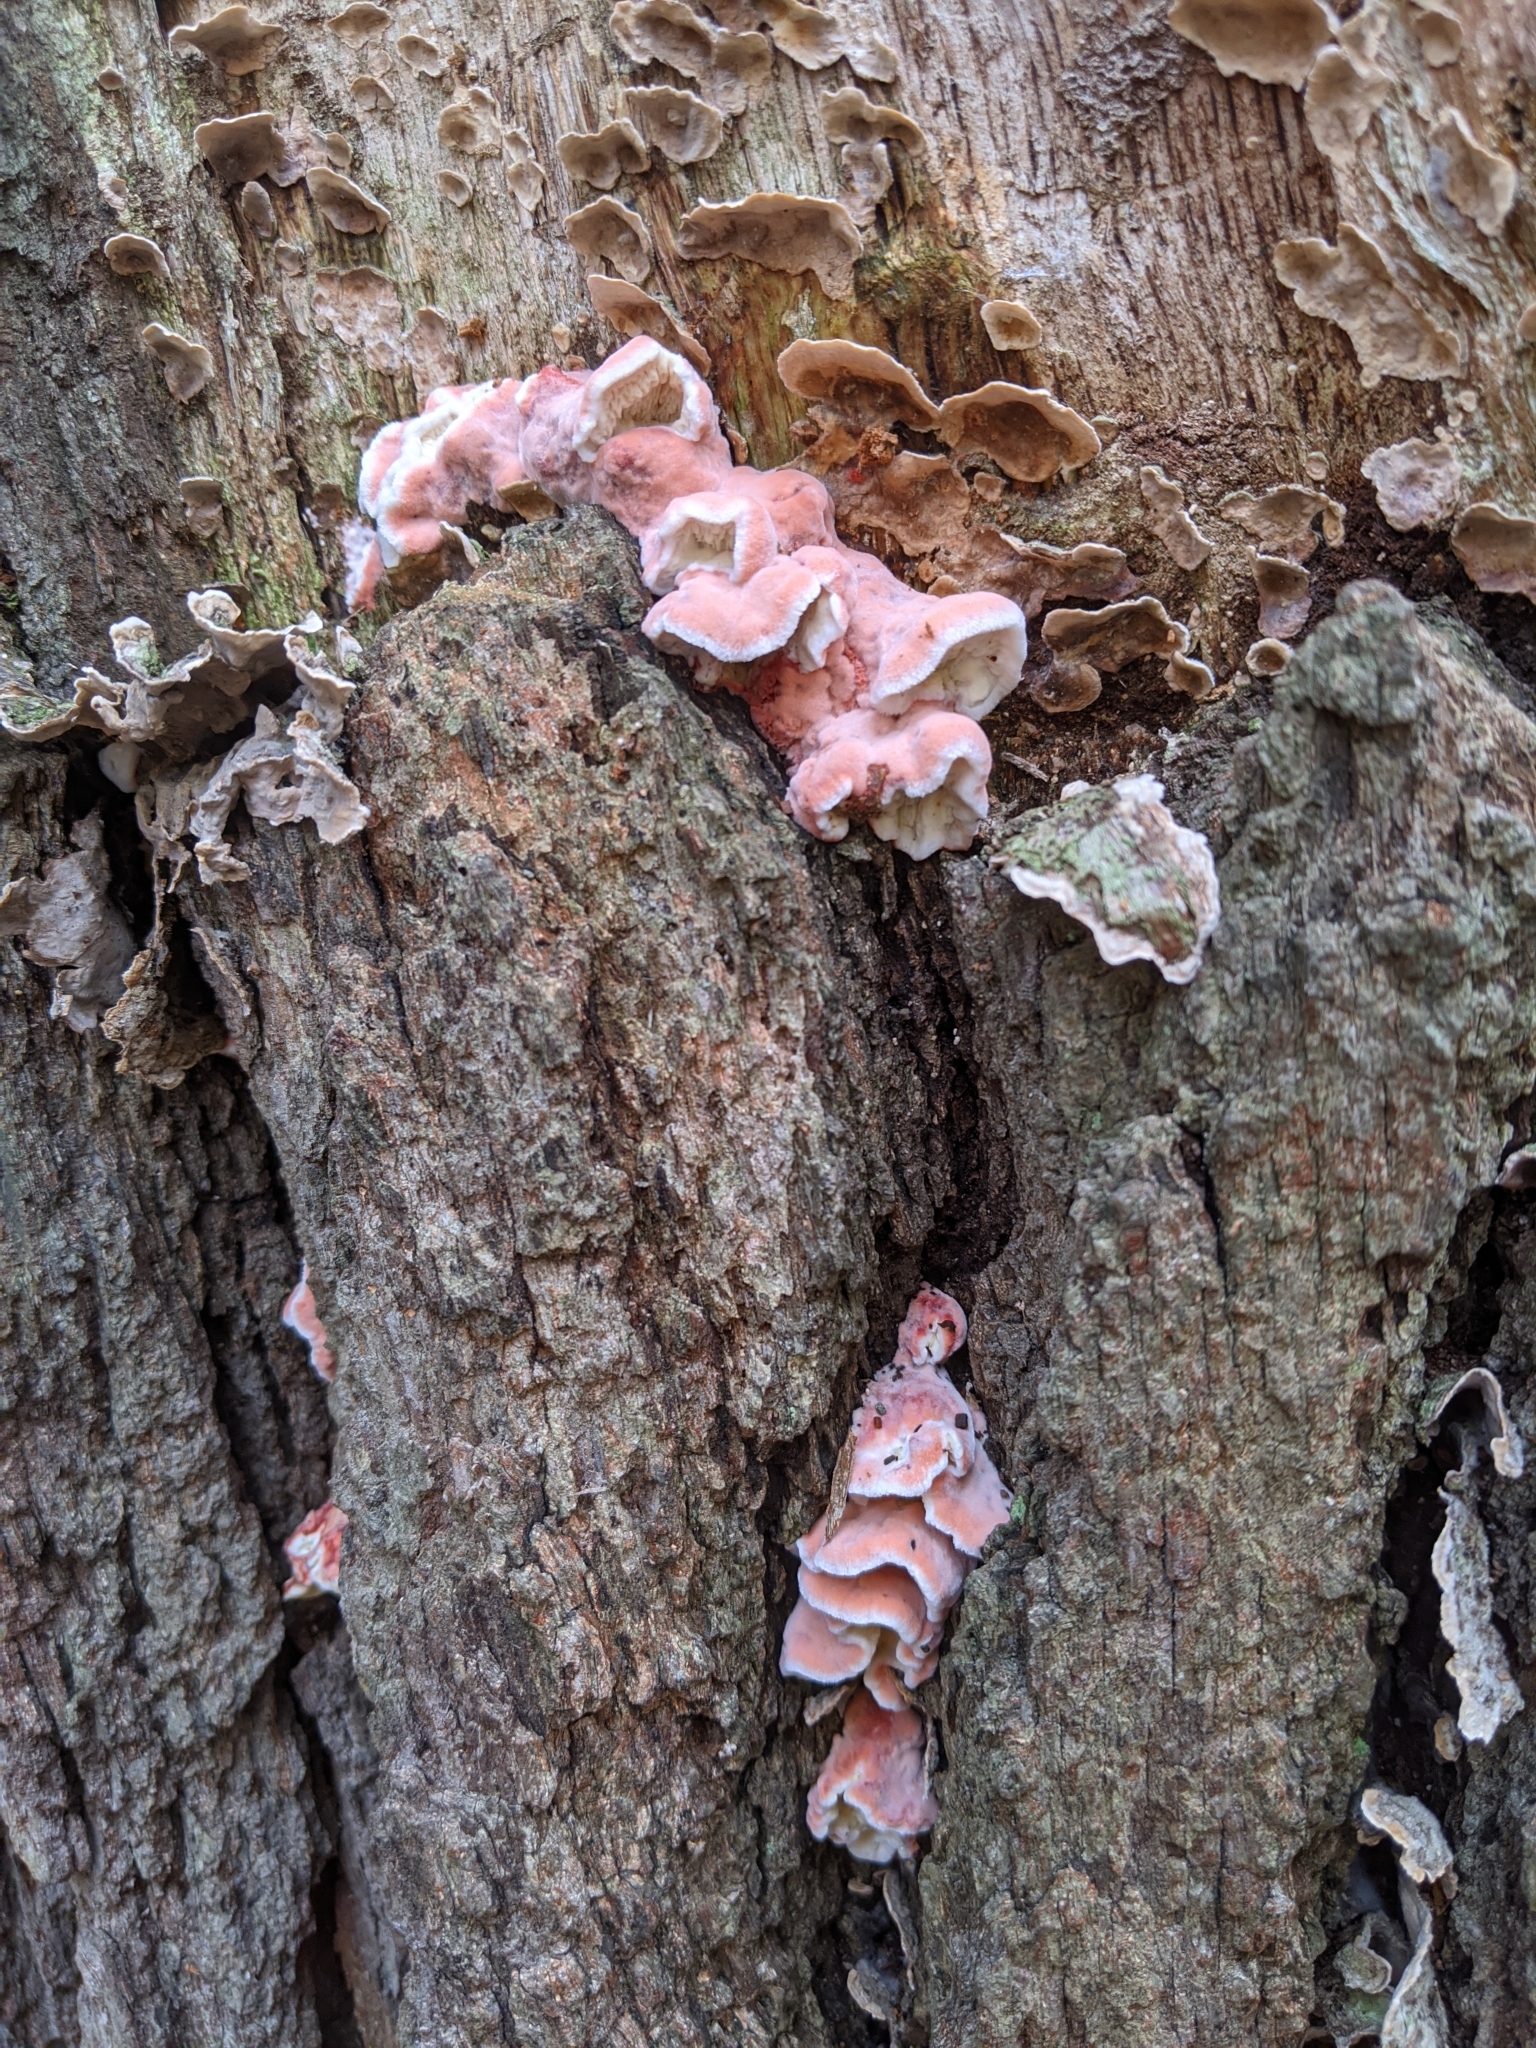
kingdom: Fungi
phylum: Basidiomycota
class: Agaricomycetes
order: Polyporales
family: Irpicaceae
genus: Byssomerulius
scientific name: Byssomerulius incarnatus
